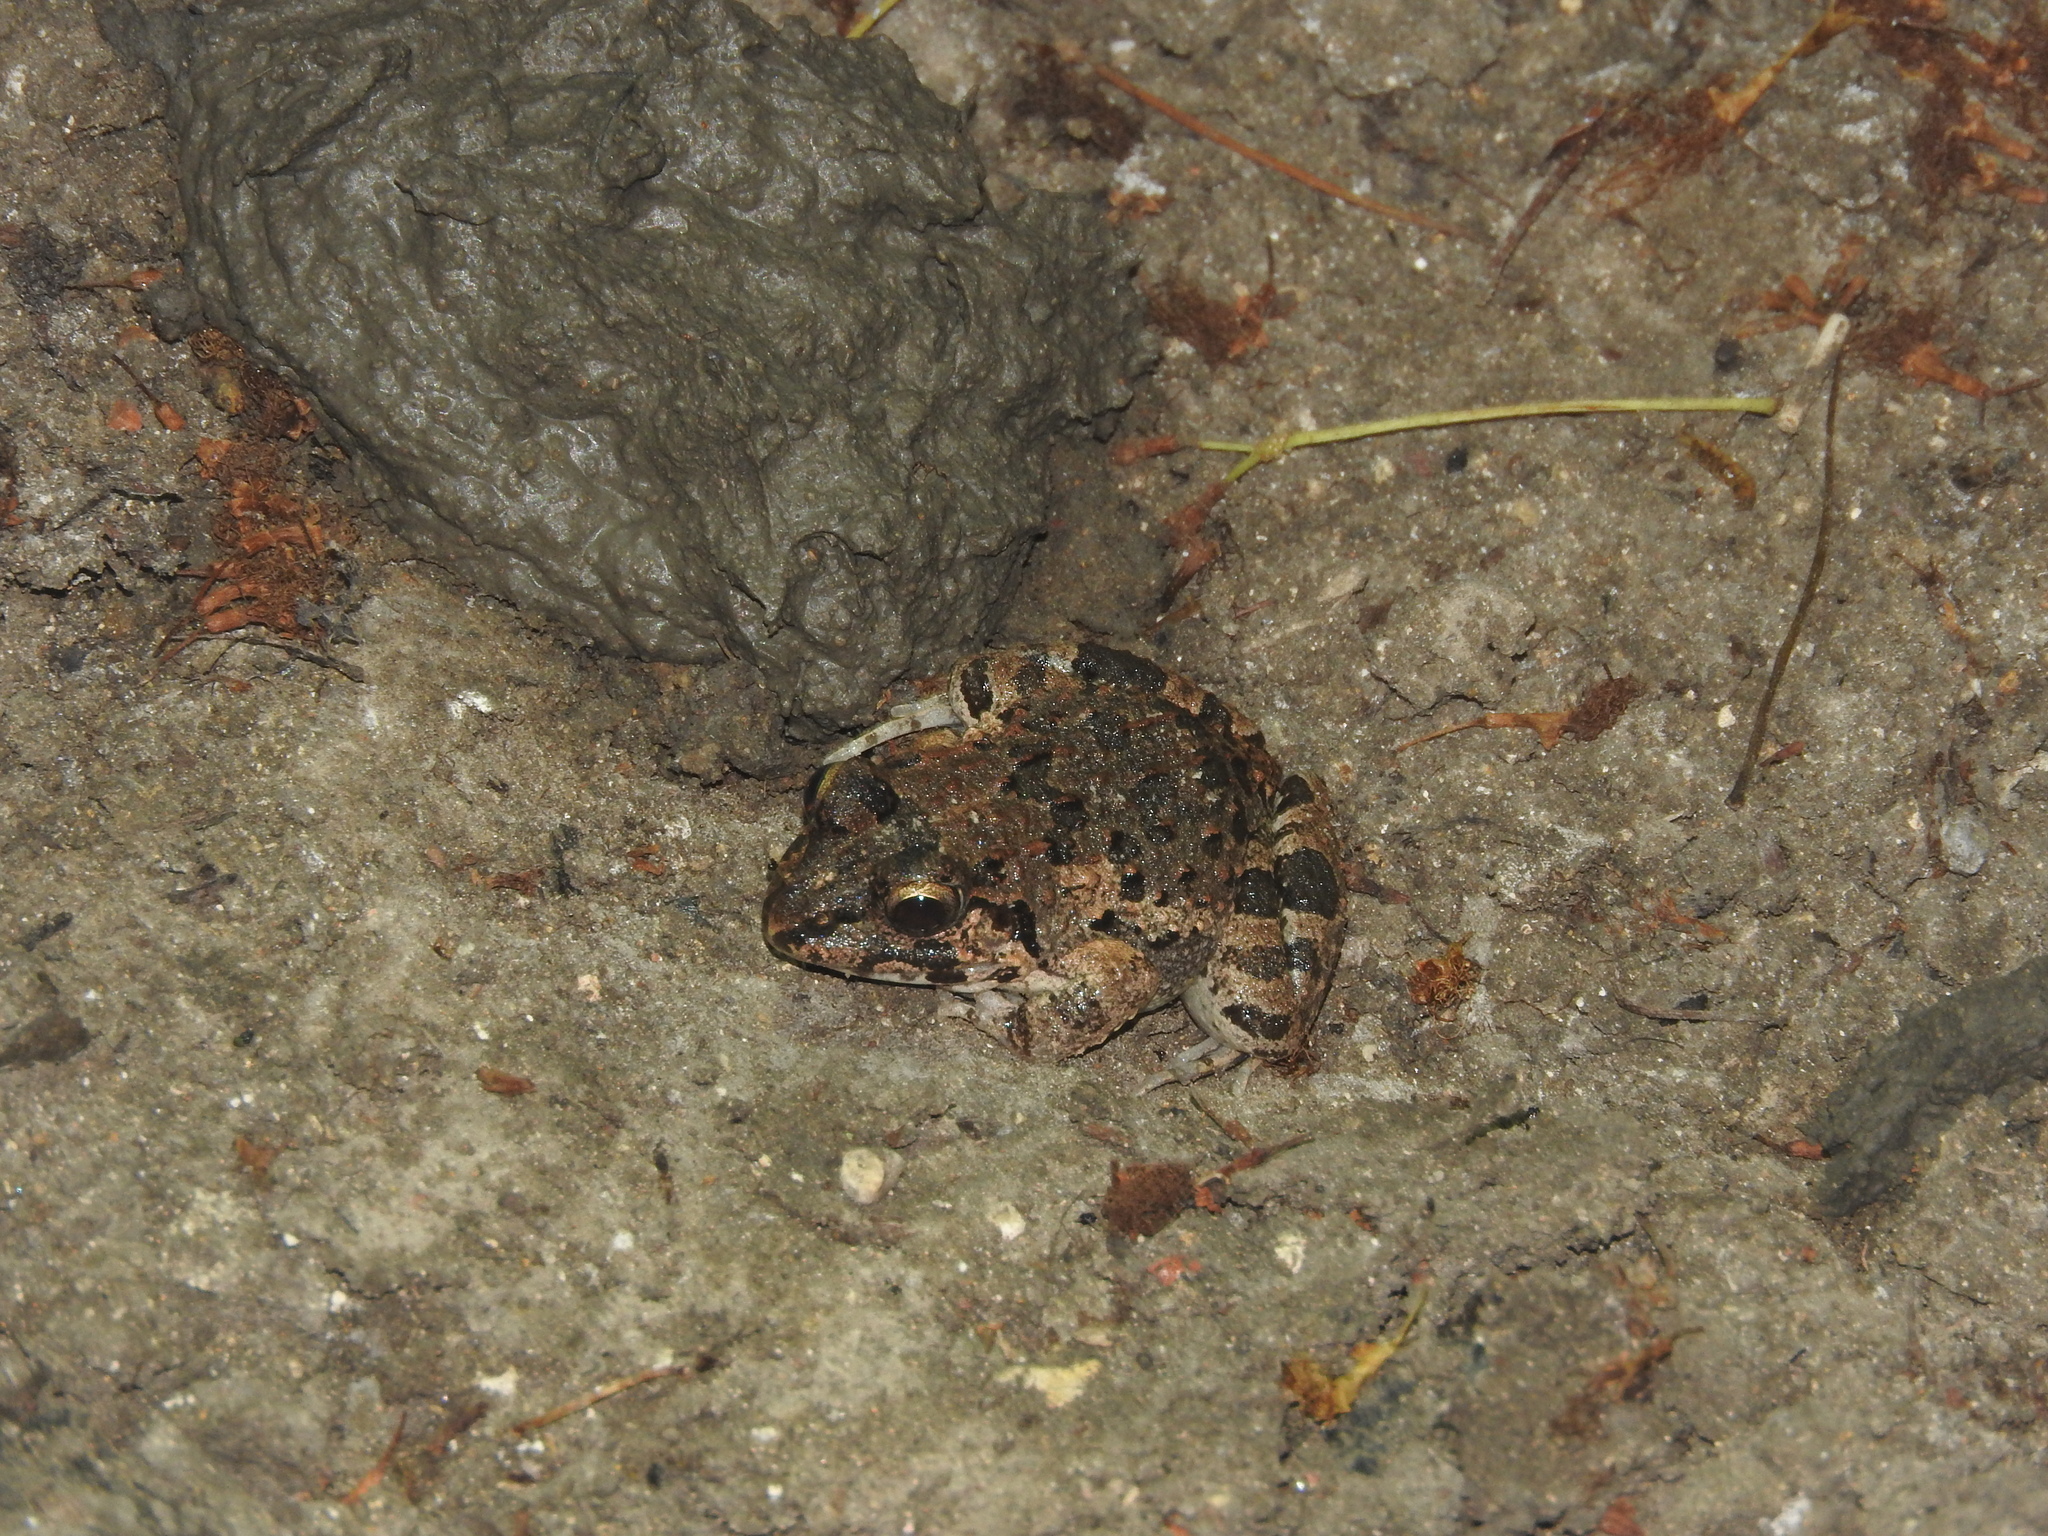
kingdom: Animalia
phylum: Chordata
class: Amphibia
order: Anura
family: Dicroglossidae
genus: Fejervarya
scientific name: Fejervarya cancrivora
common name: Crab-eating frog/mangrove frog/rice field frog/asian brackish frog
